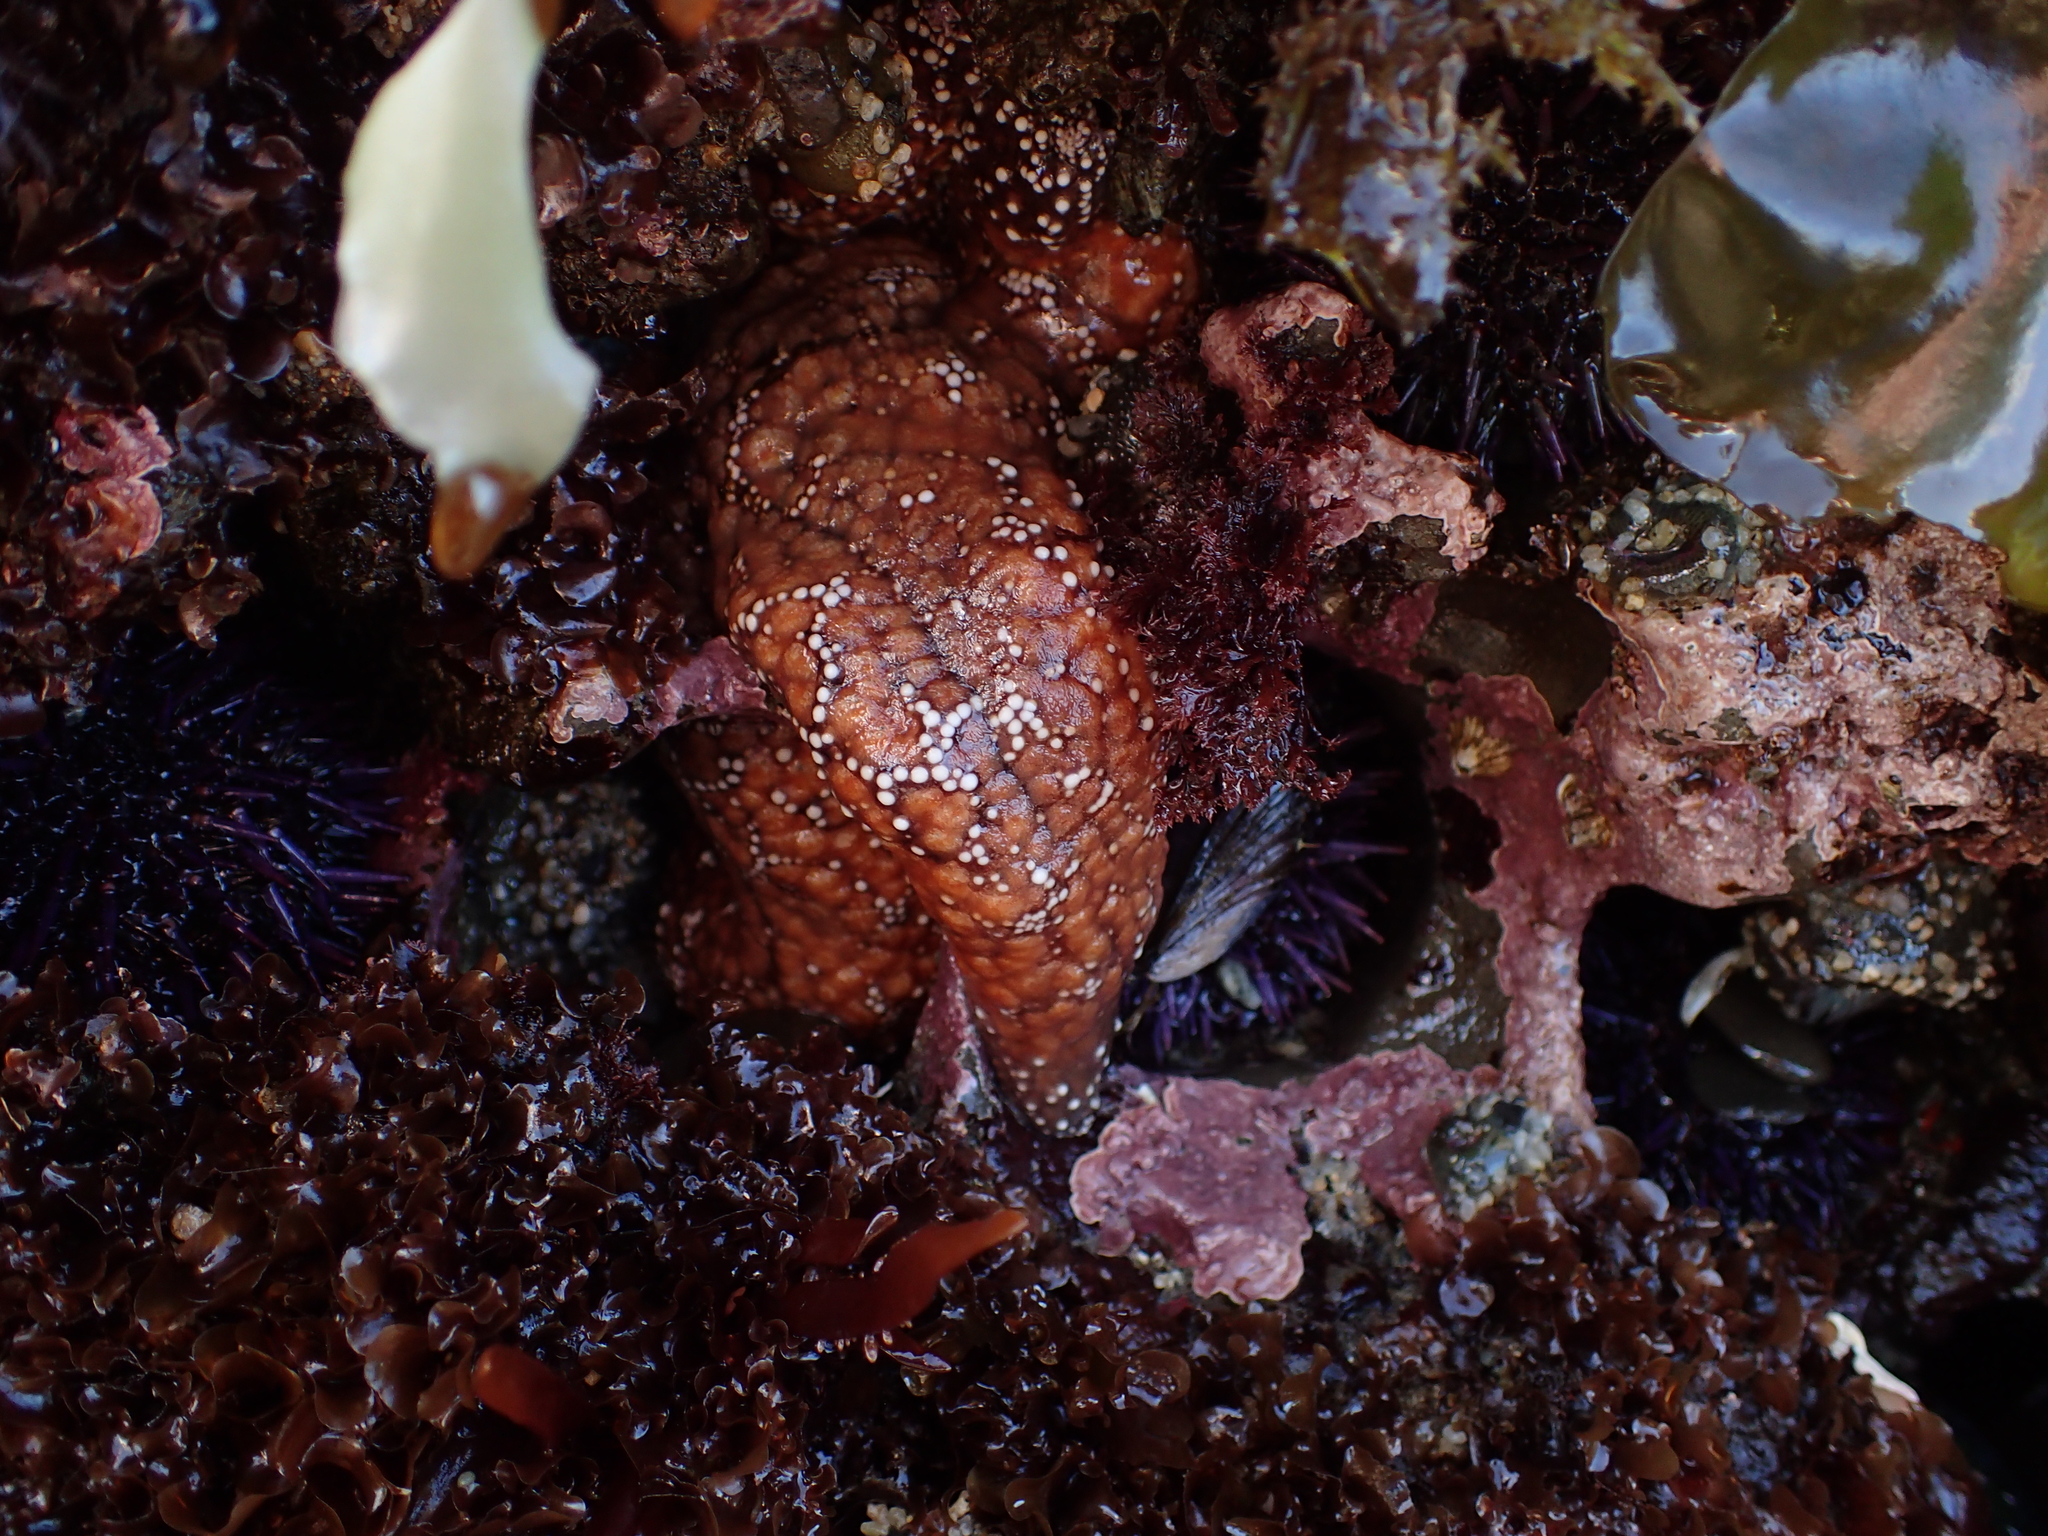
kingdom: Animalia
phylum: Echinodermata
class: Asteroidea
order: Forcipulatida
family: Asteriidae
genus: Pisaster
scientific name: Pisaster ochraceus
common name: Ochre stars
